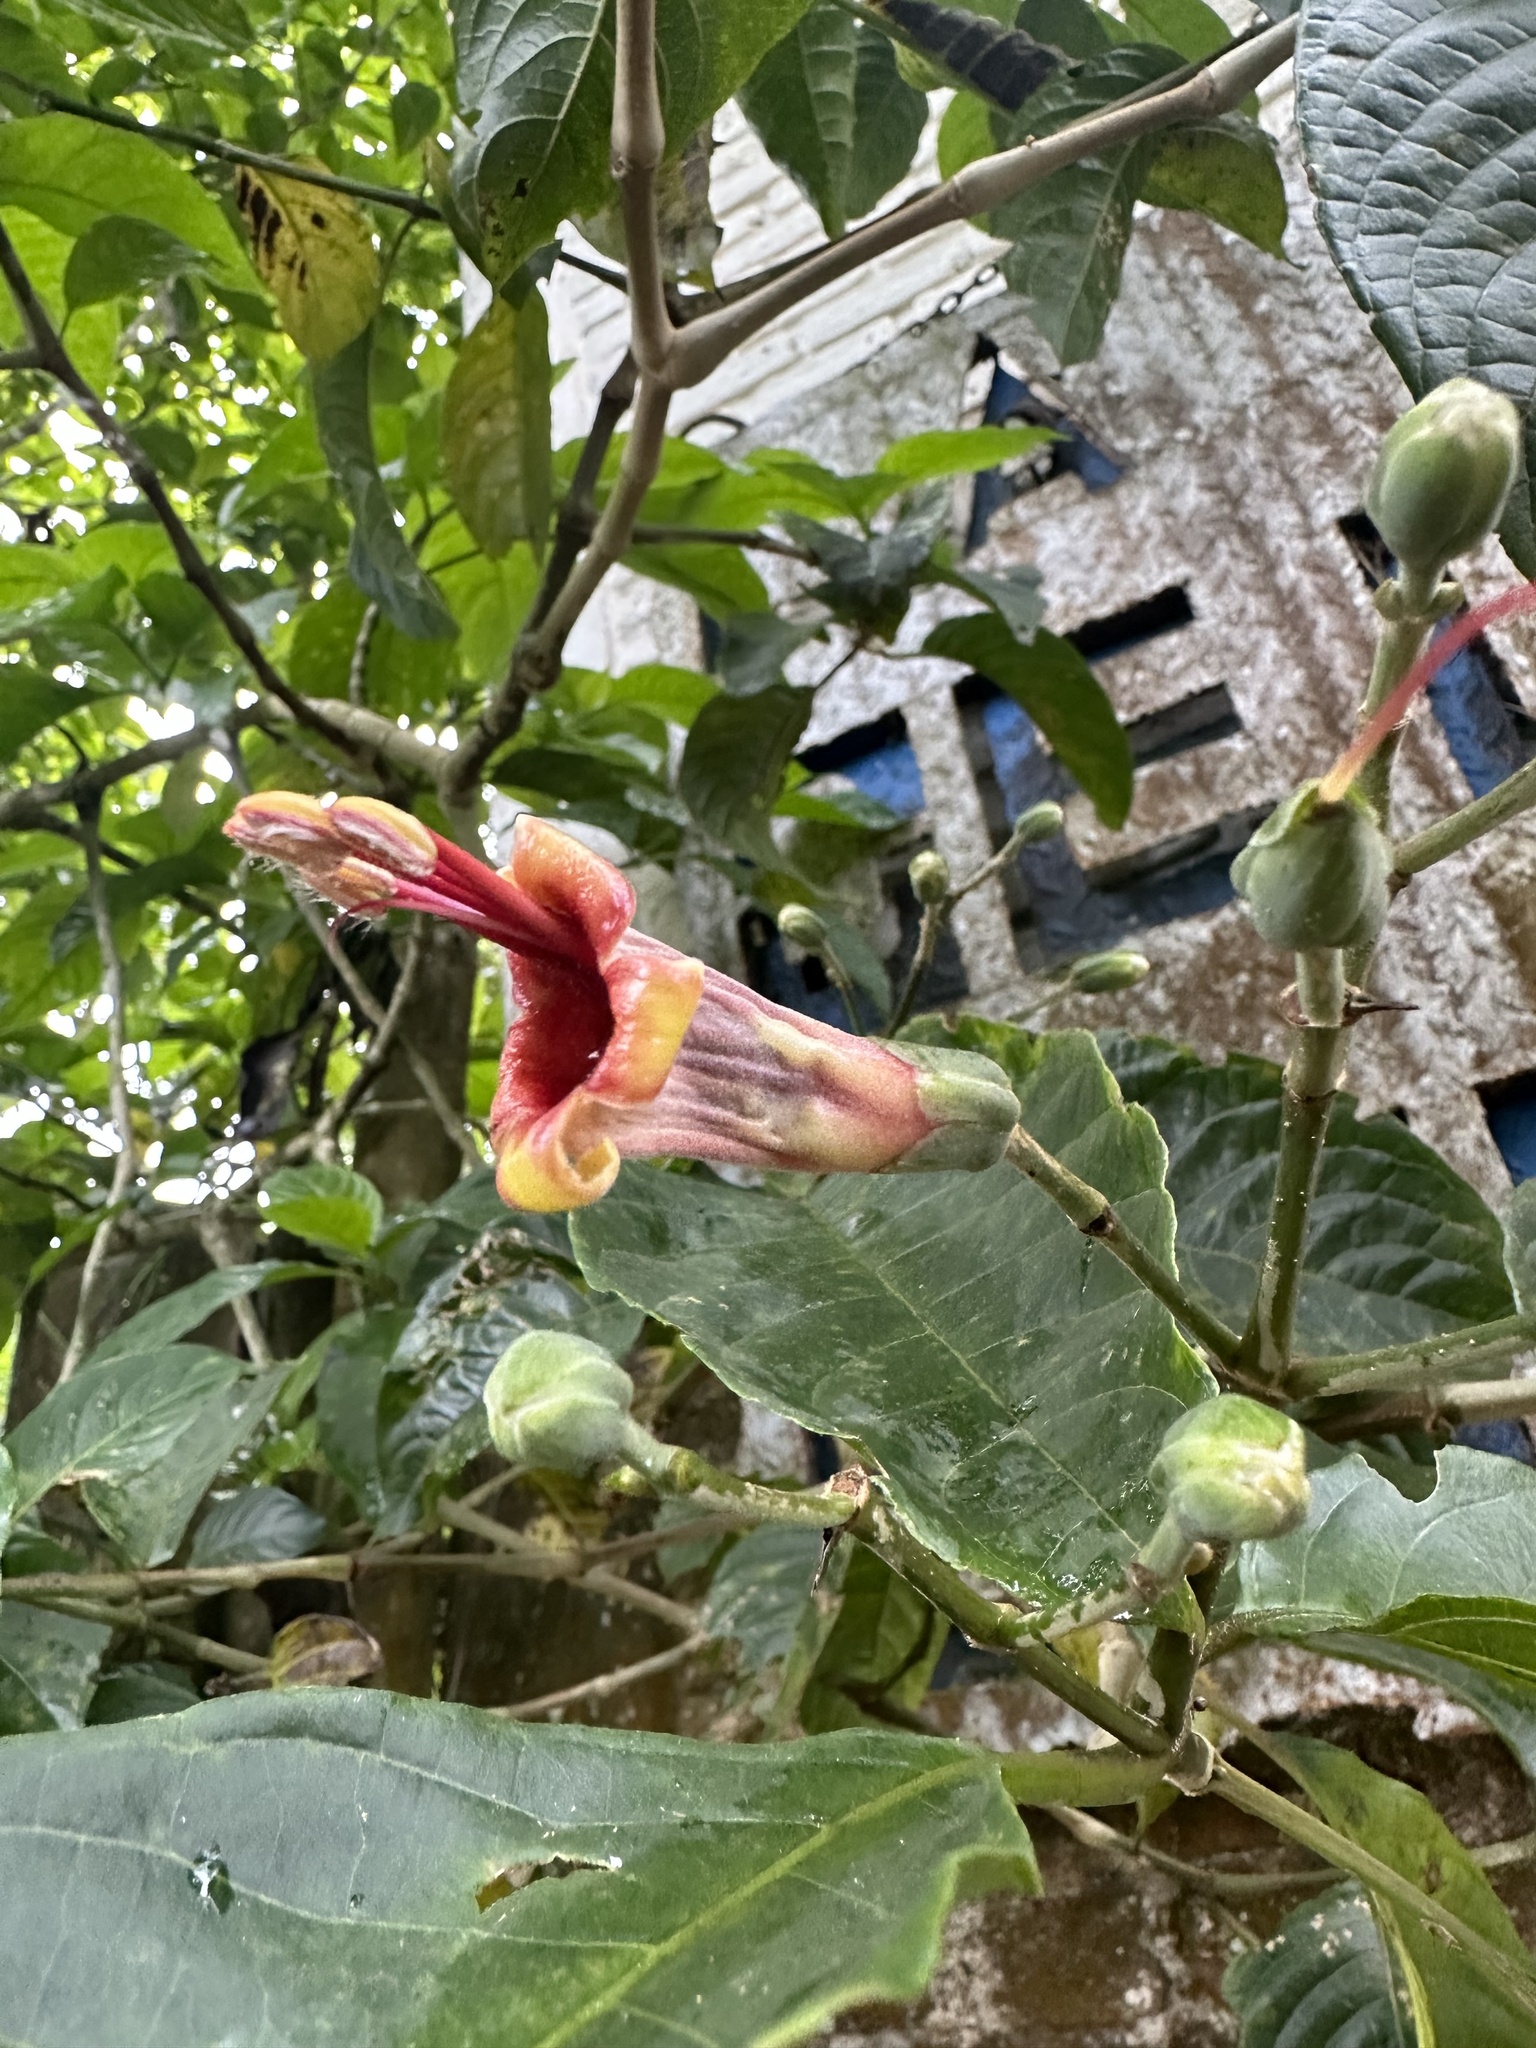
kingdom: Plantae
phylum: Tracheophyta
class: Magnoliopsida
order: Lamiales
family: Acanthaceae
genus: Trichanthera
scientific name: Trichanthera gigantea
